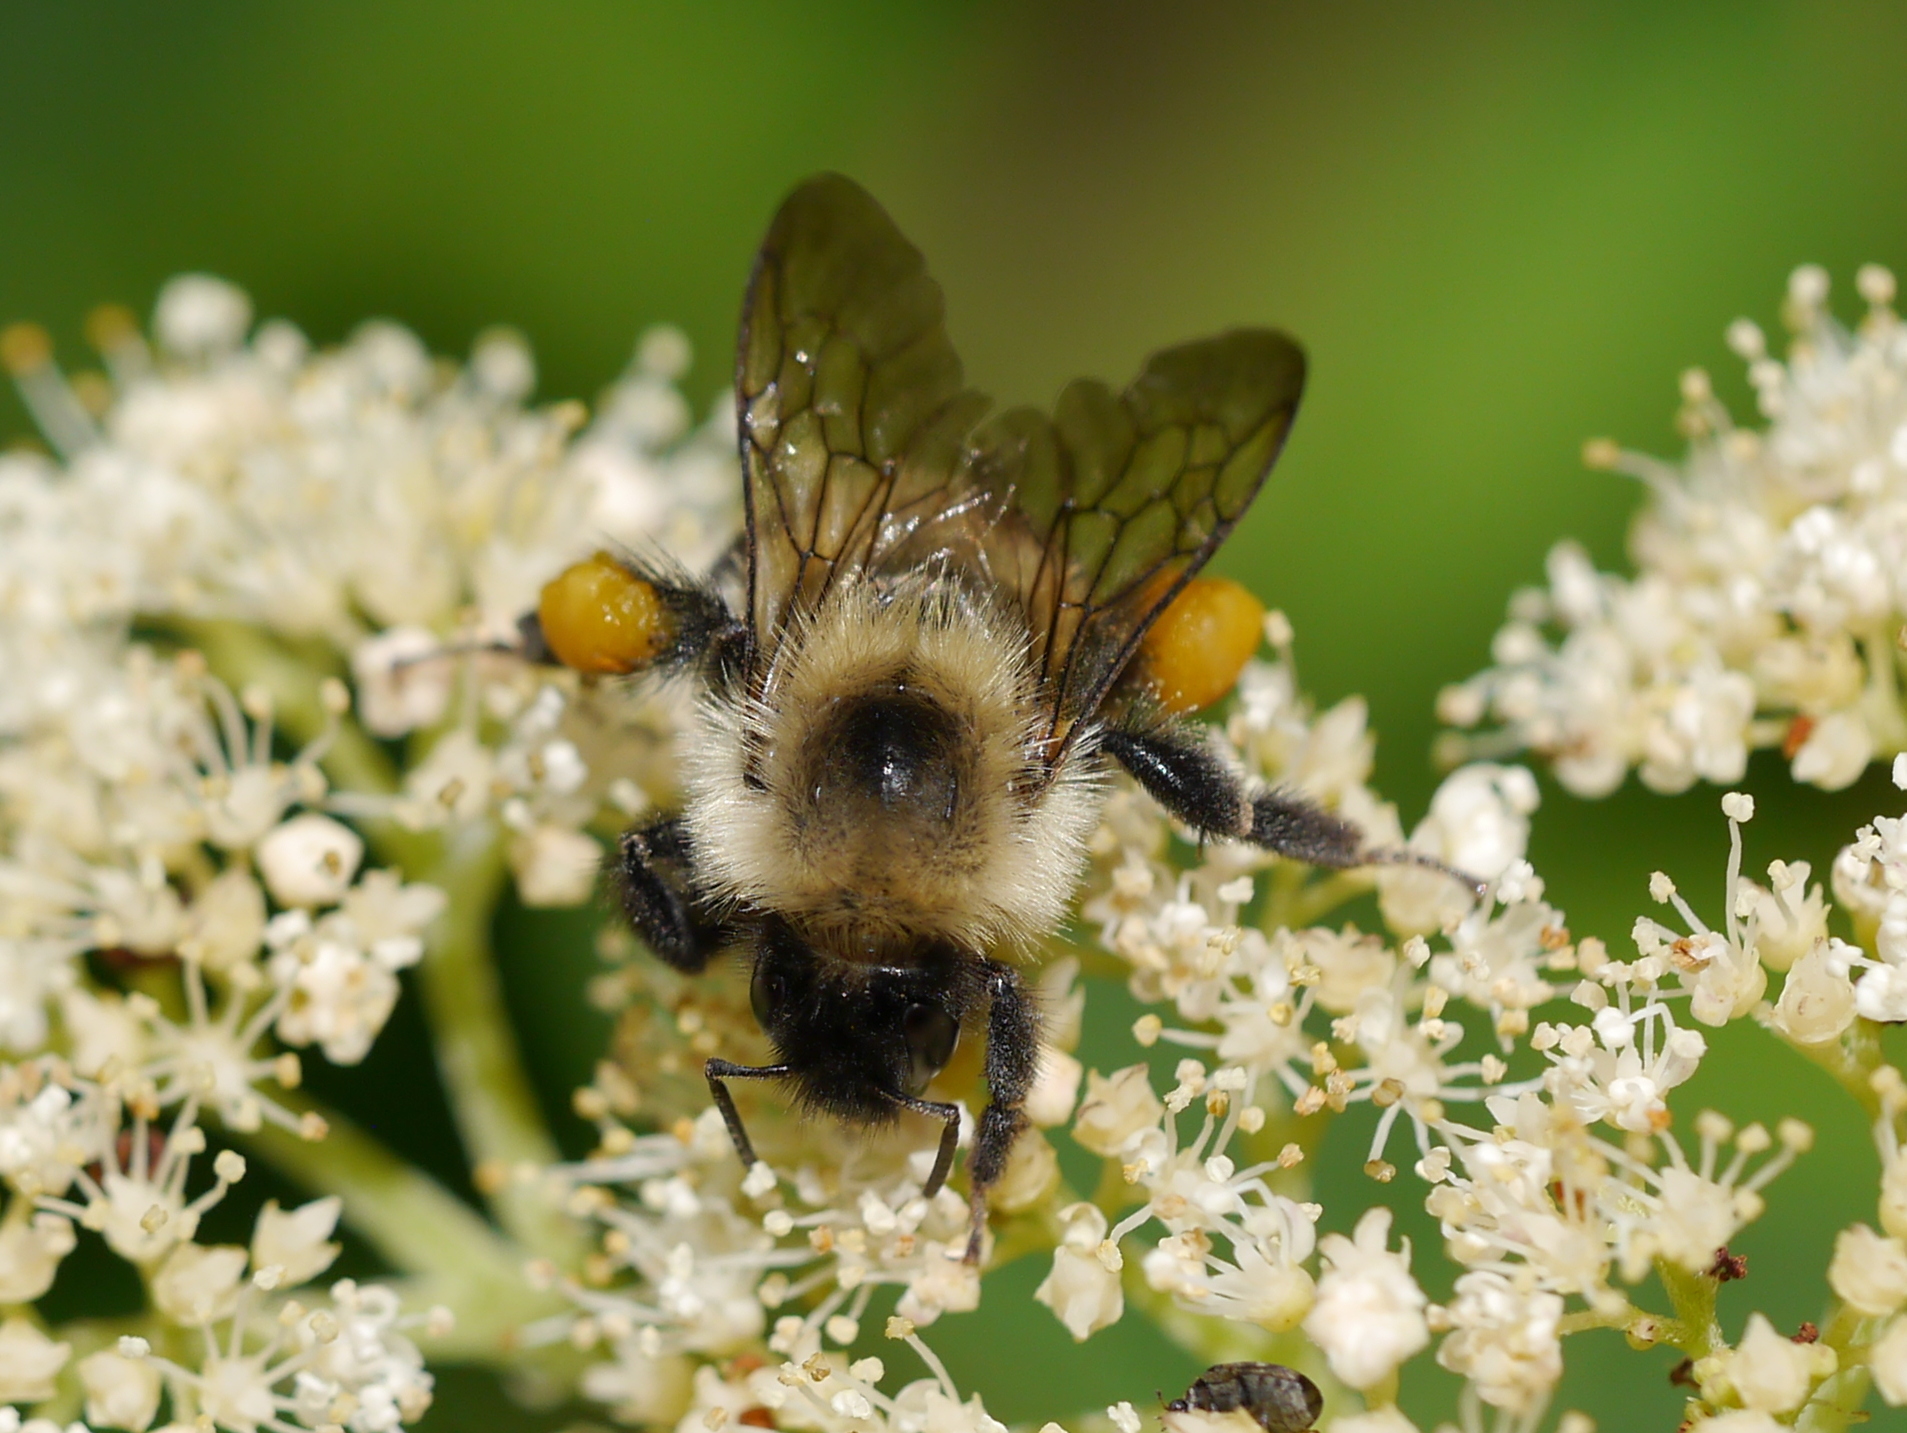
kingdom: Animalia
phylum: Arthropoda
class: Insecta
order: Hymenoptera
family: Apidae
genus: Bombus
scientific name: Bombus bimaculatus
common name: Two-spotted bumble bee
